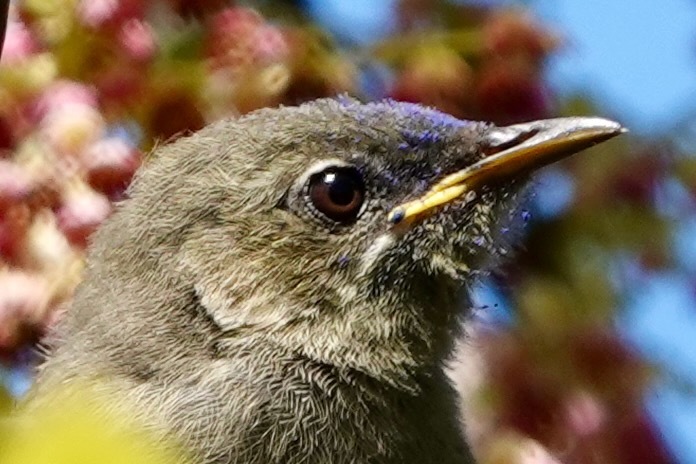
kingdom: Animalia
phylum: Chordata
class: Aves
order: Passeriformes
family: Meliphagidae
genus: Anthornis
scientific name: Anthornis melanura
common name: New zealand bellbird
